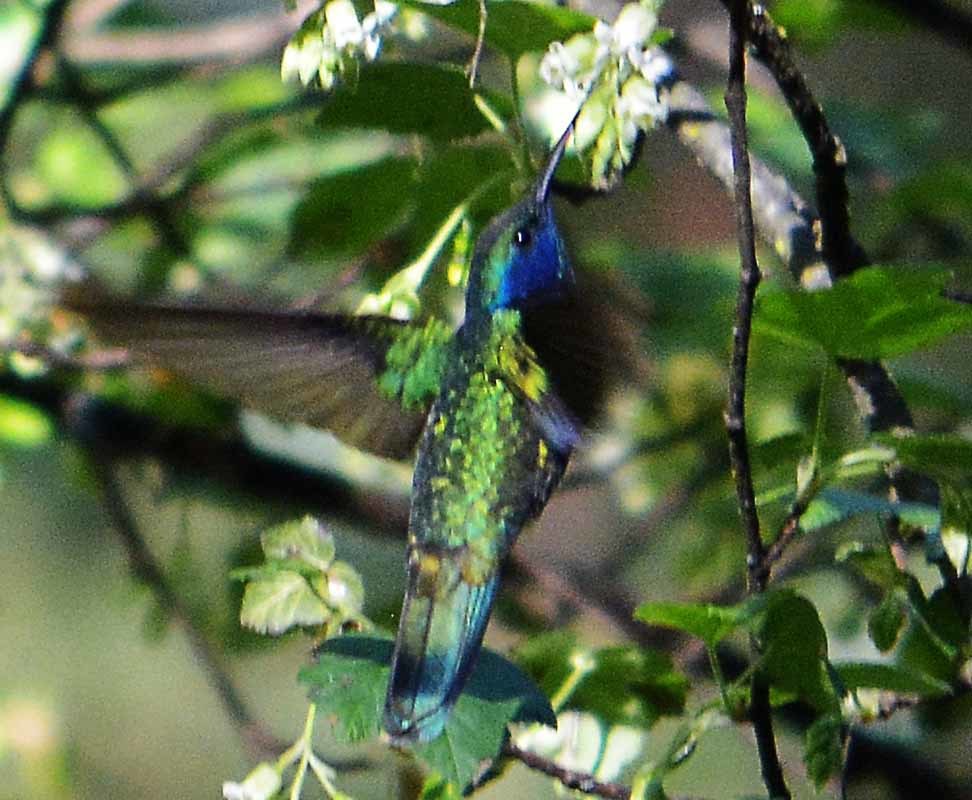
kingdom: Animalia
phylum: Chordata
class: Aves
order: Apodiformes
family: Trochilidae
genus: Colibri
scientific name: Colibri thalassinus
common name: Green violetear
